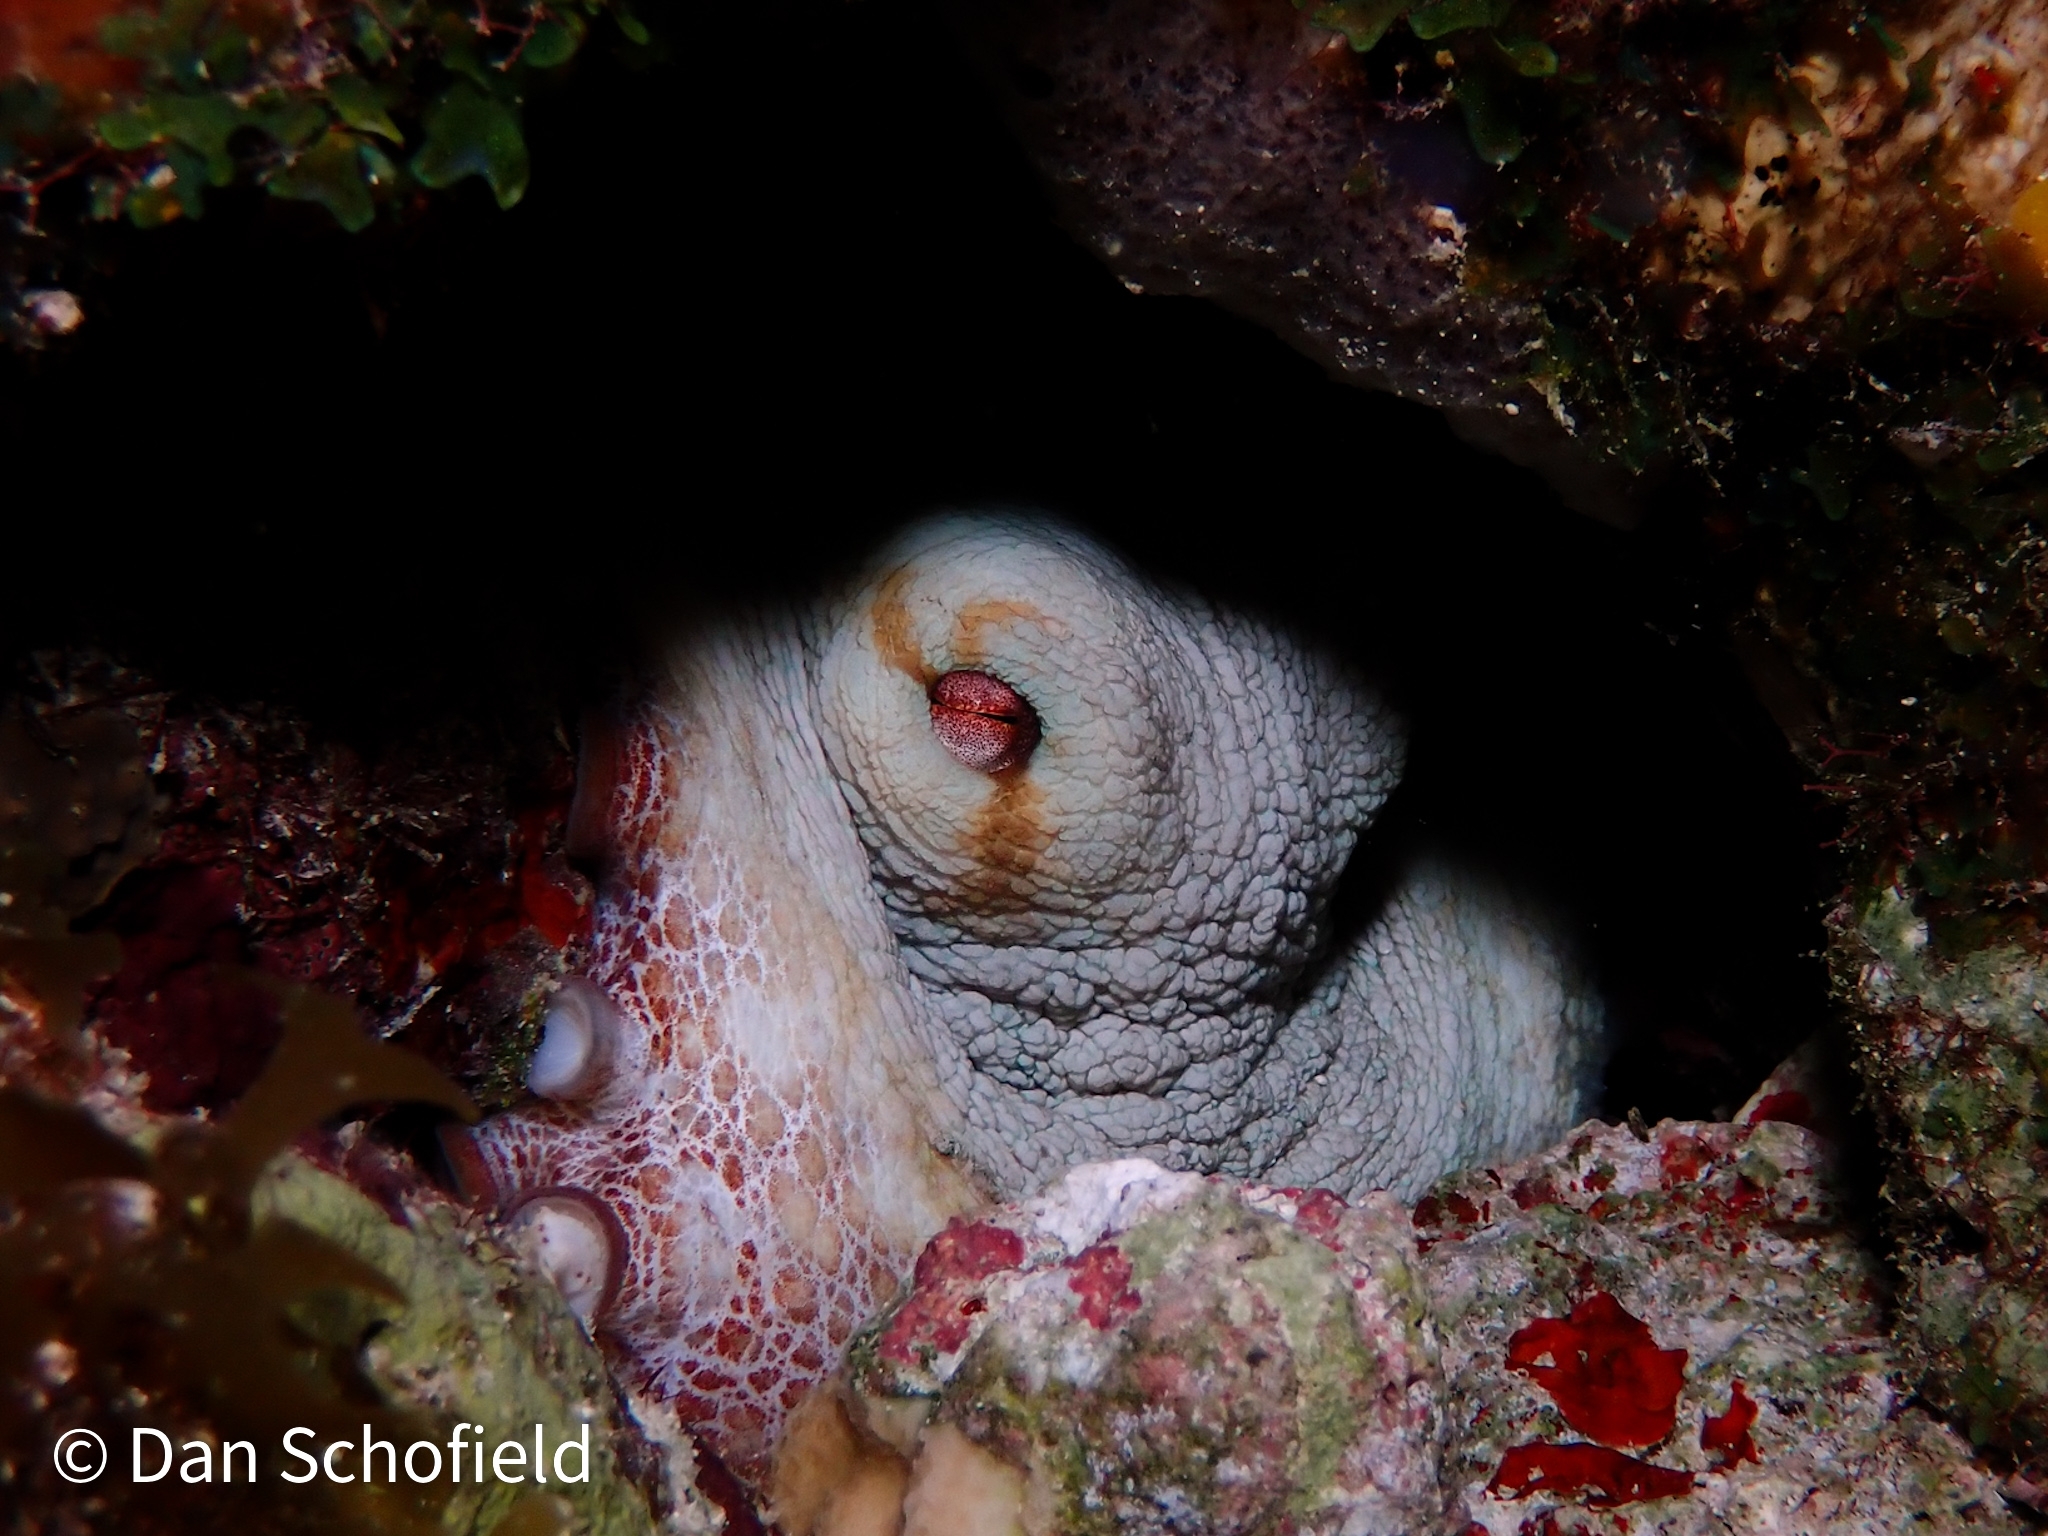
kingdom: Animalia
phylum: Mollusca
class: Cephalopoda
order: Octopoda
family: Octopodidae
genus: Octopus
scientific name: Octopus insularis
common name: Brazil reef octopus
